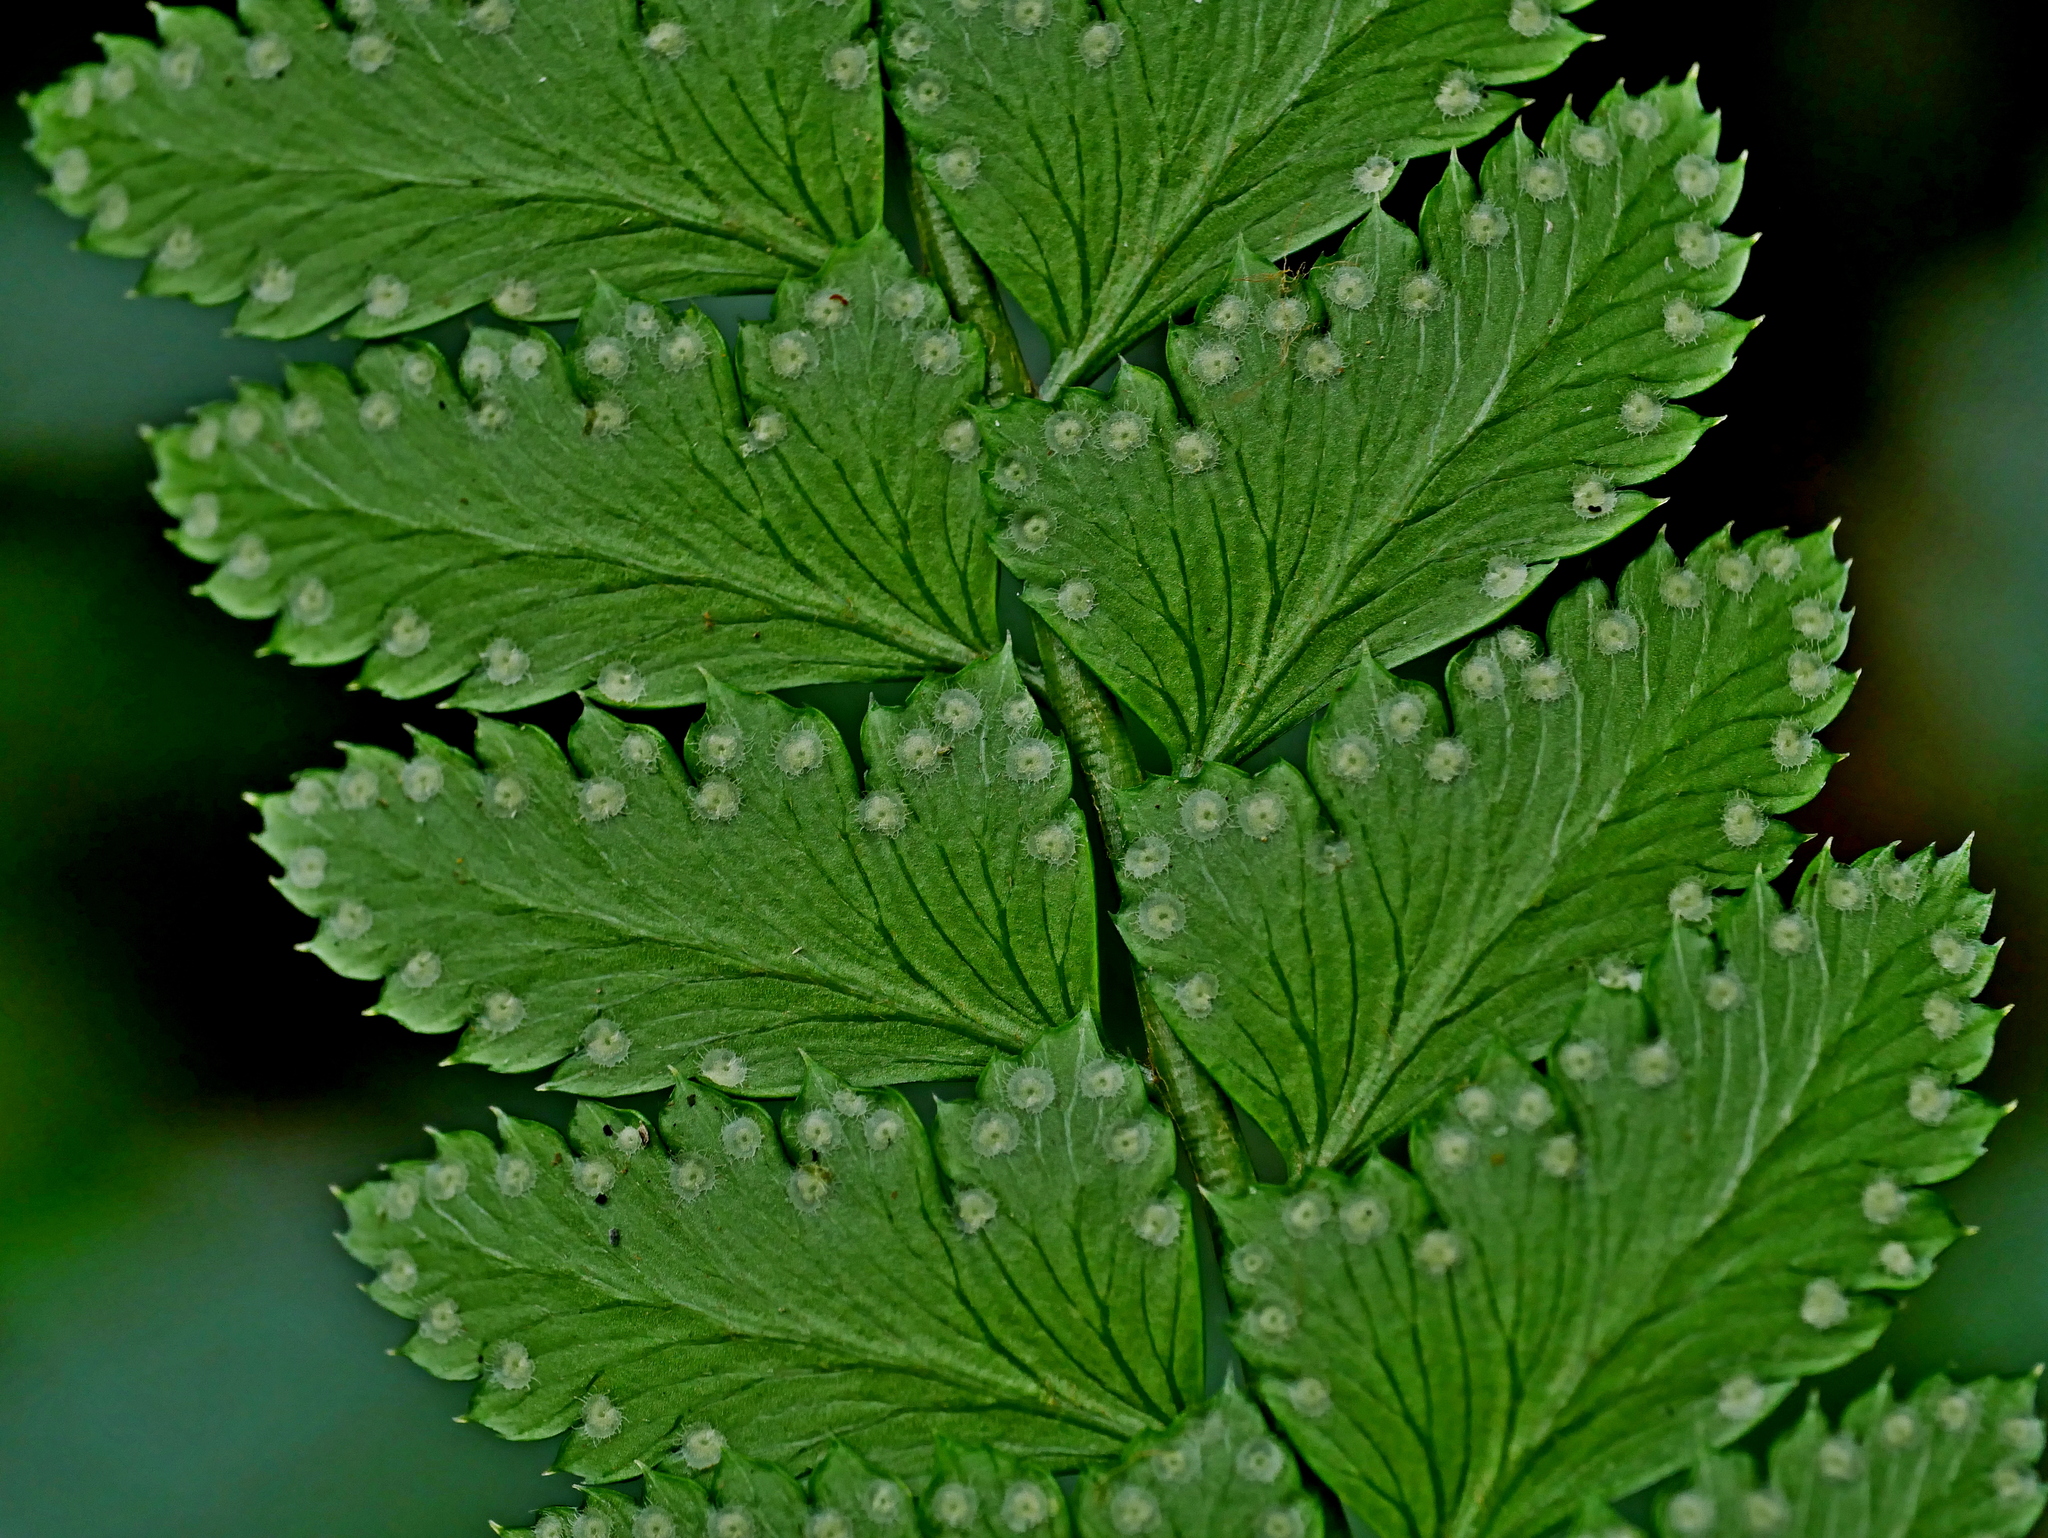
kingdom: Plantae
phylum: Tracheophyta
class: Polypodiopsida
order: Polypodiales
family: Dryopteridaceae
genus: Arachniodes
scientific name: Arachniodes rhomboidea
